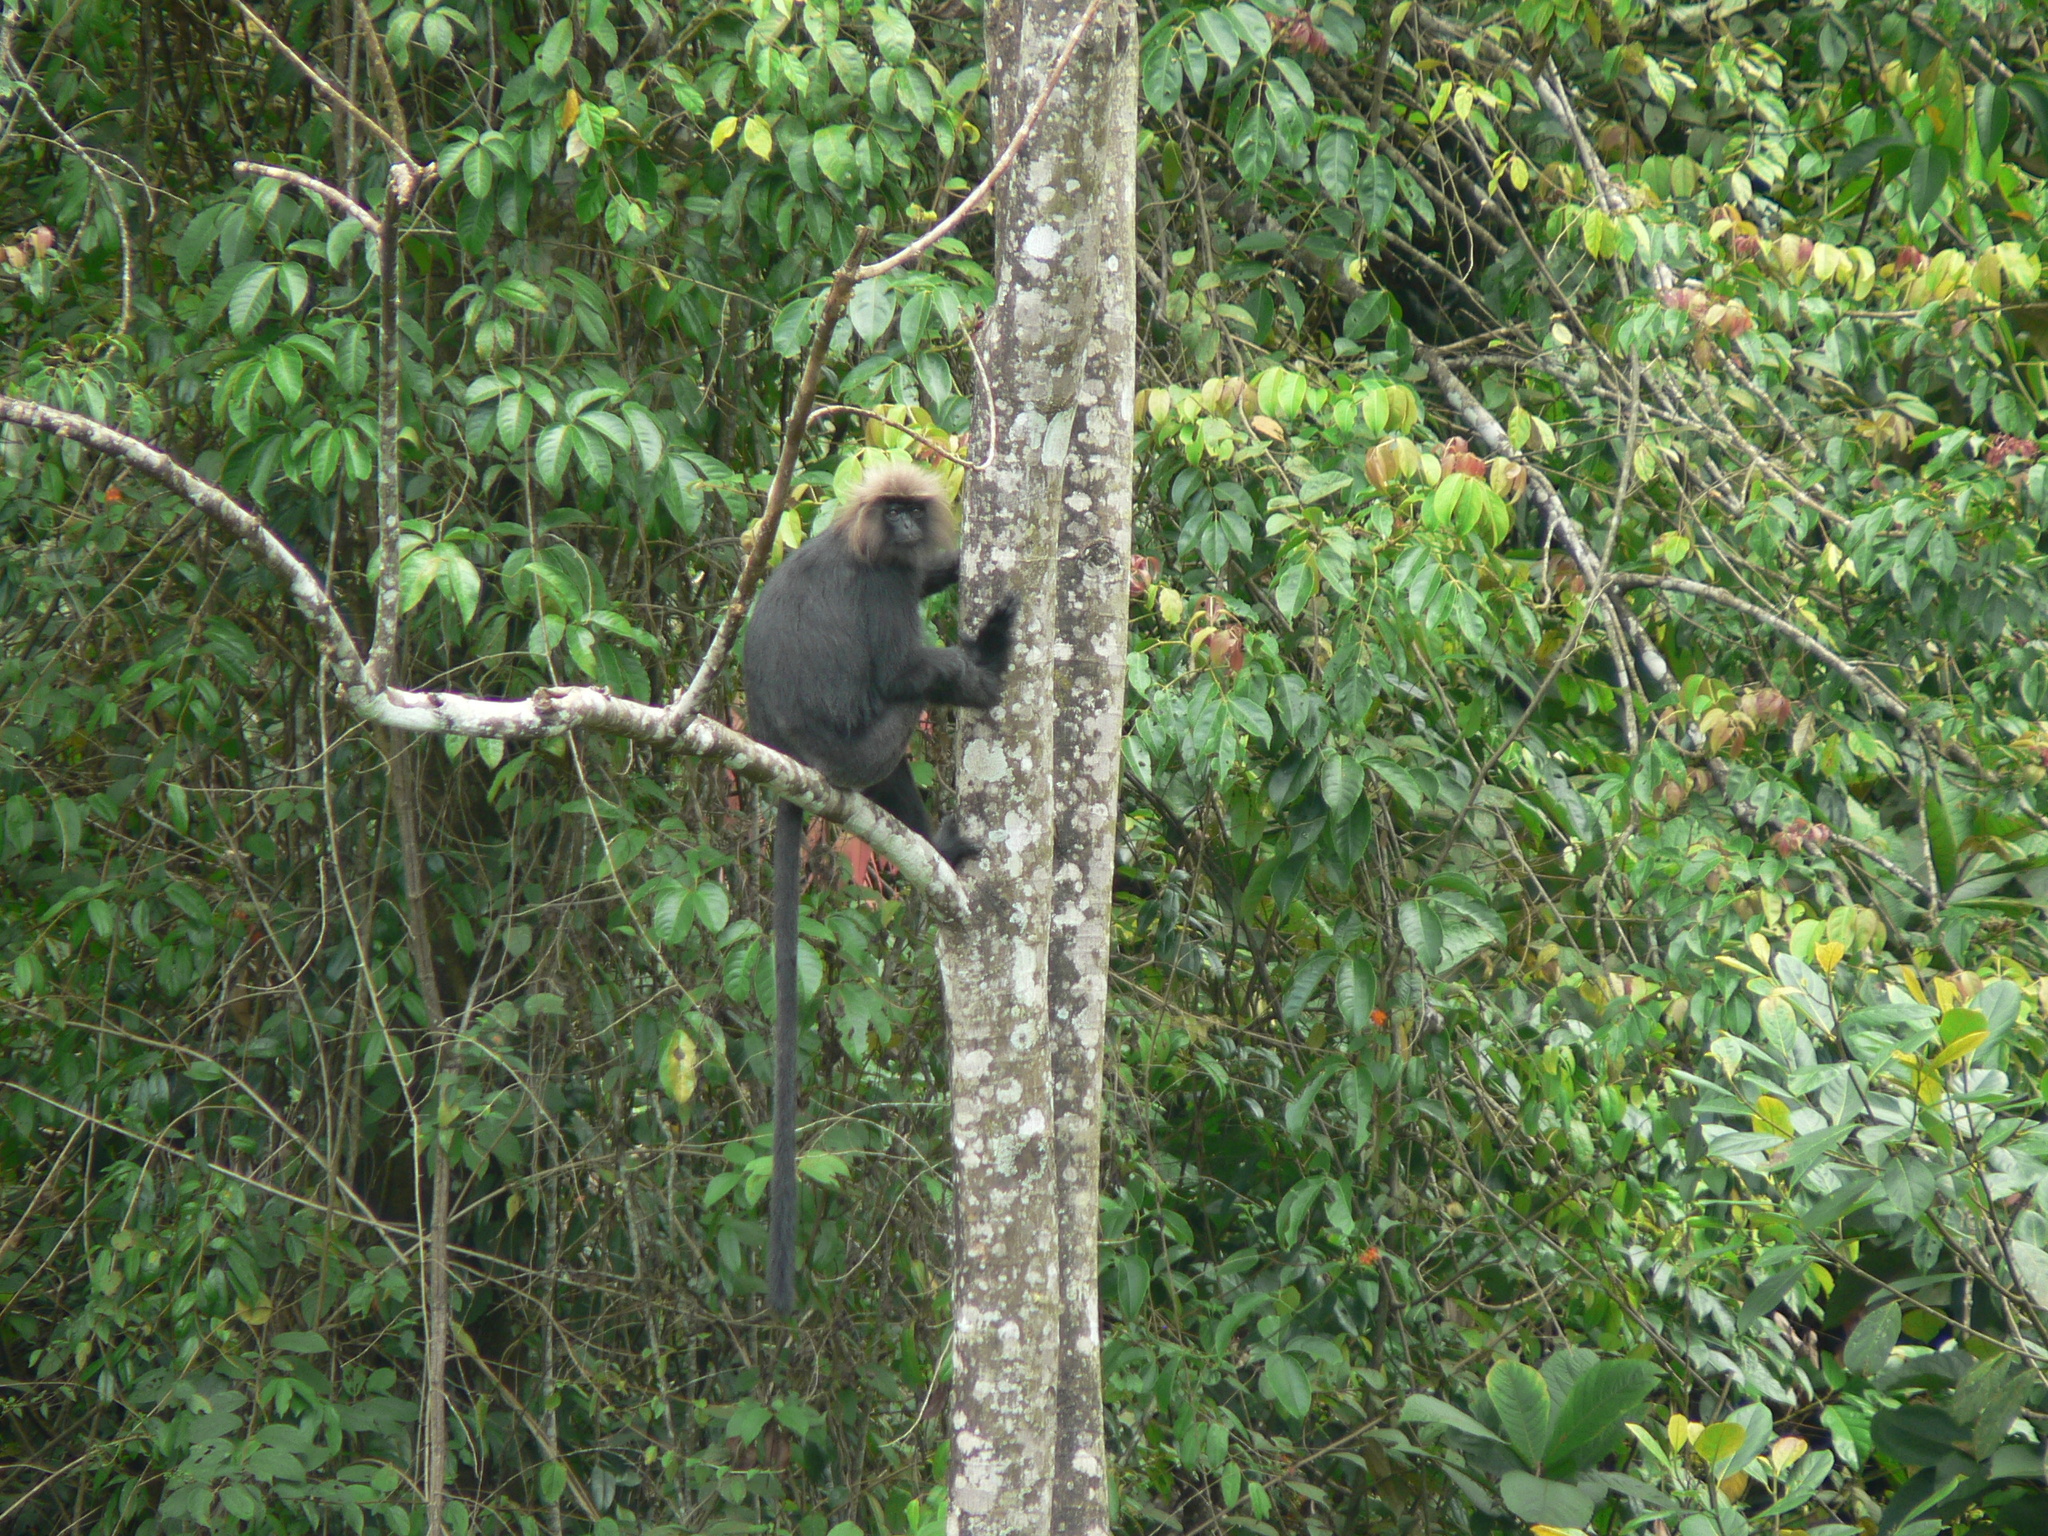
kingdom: Animalia
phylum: Chordata
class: Mammalia
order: Primates
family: Cercopithecidae
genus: Semnopithecus
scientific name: Semnopithecus johnii
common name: Nilgiri langur
